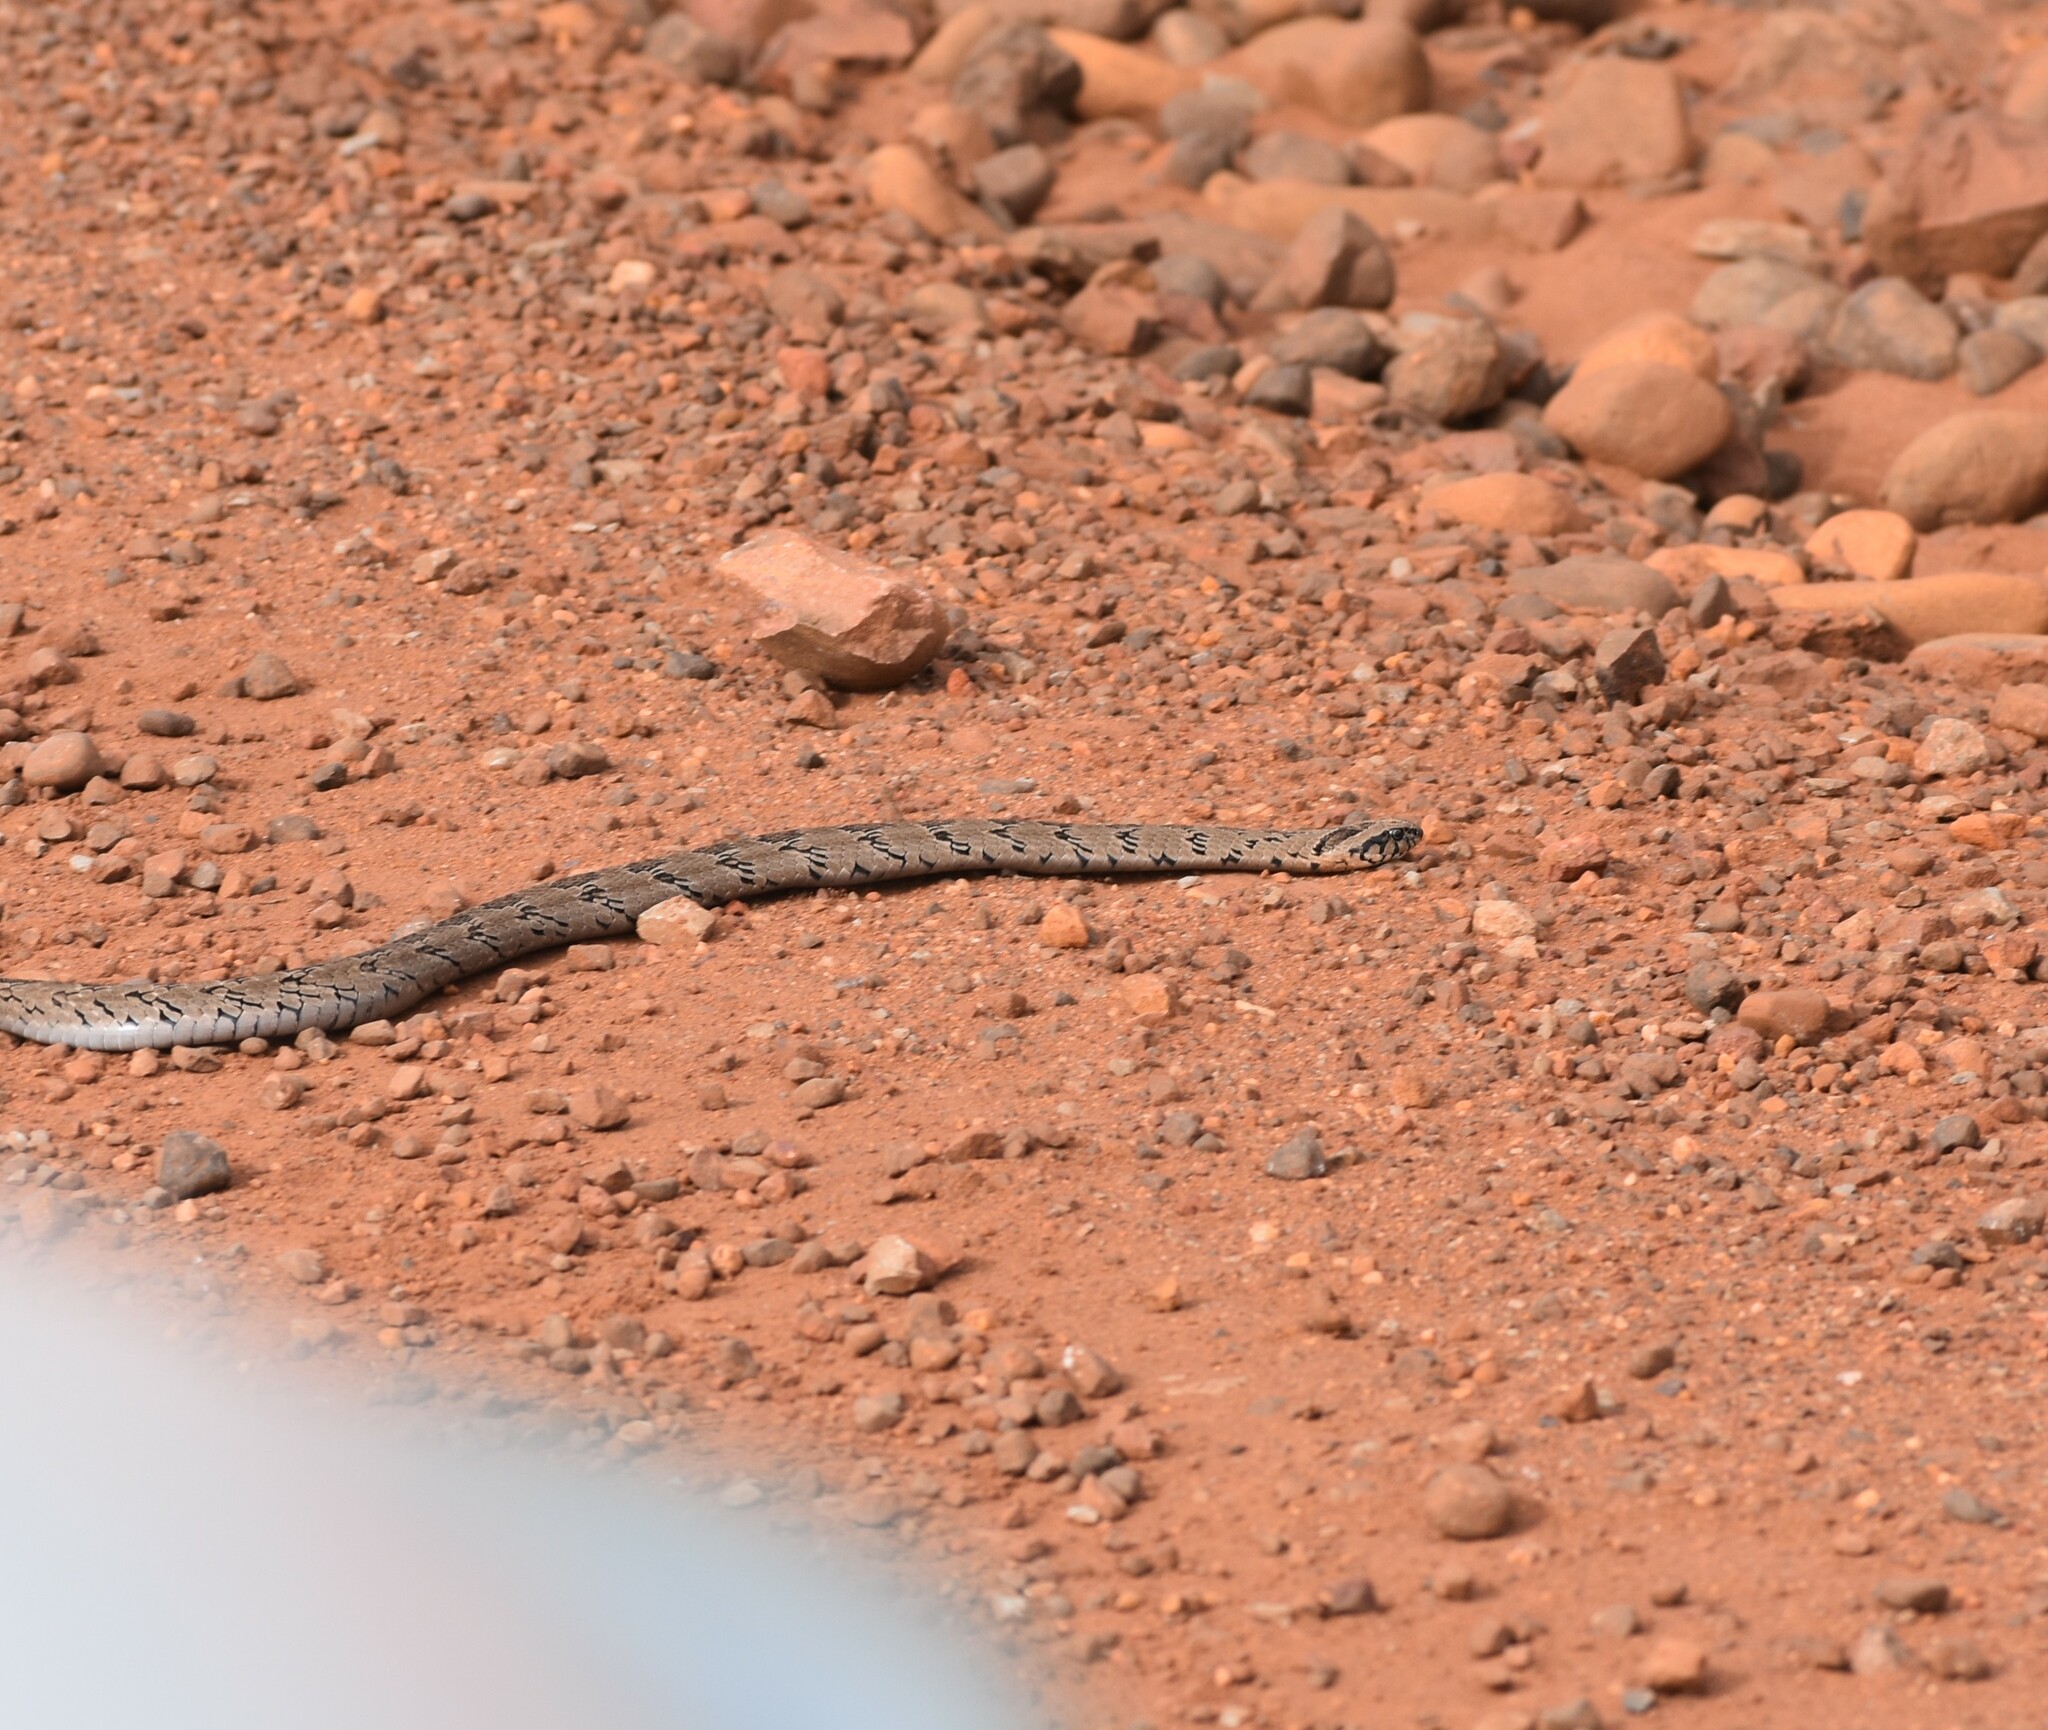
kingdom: Animalia
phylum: Chordata
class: Squamata
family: Viperidae
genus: Causus
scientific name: Causus rhombeatus
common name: Common night adder
